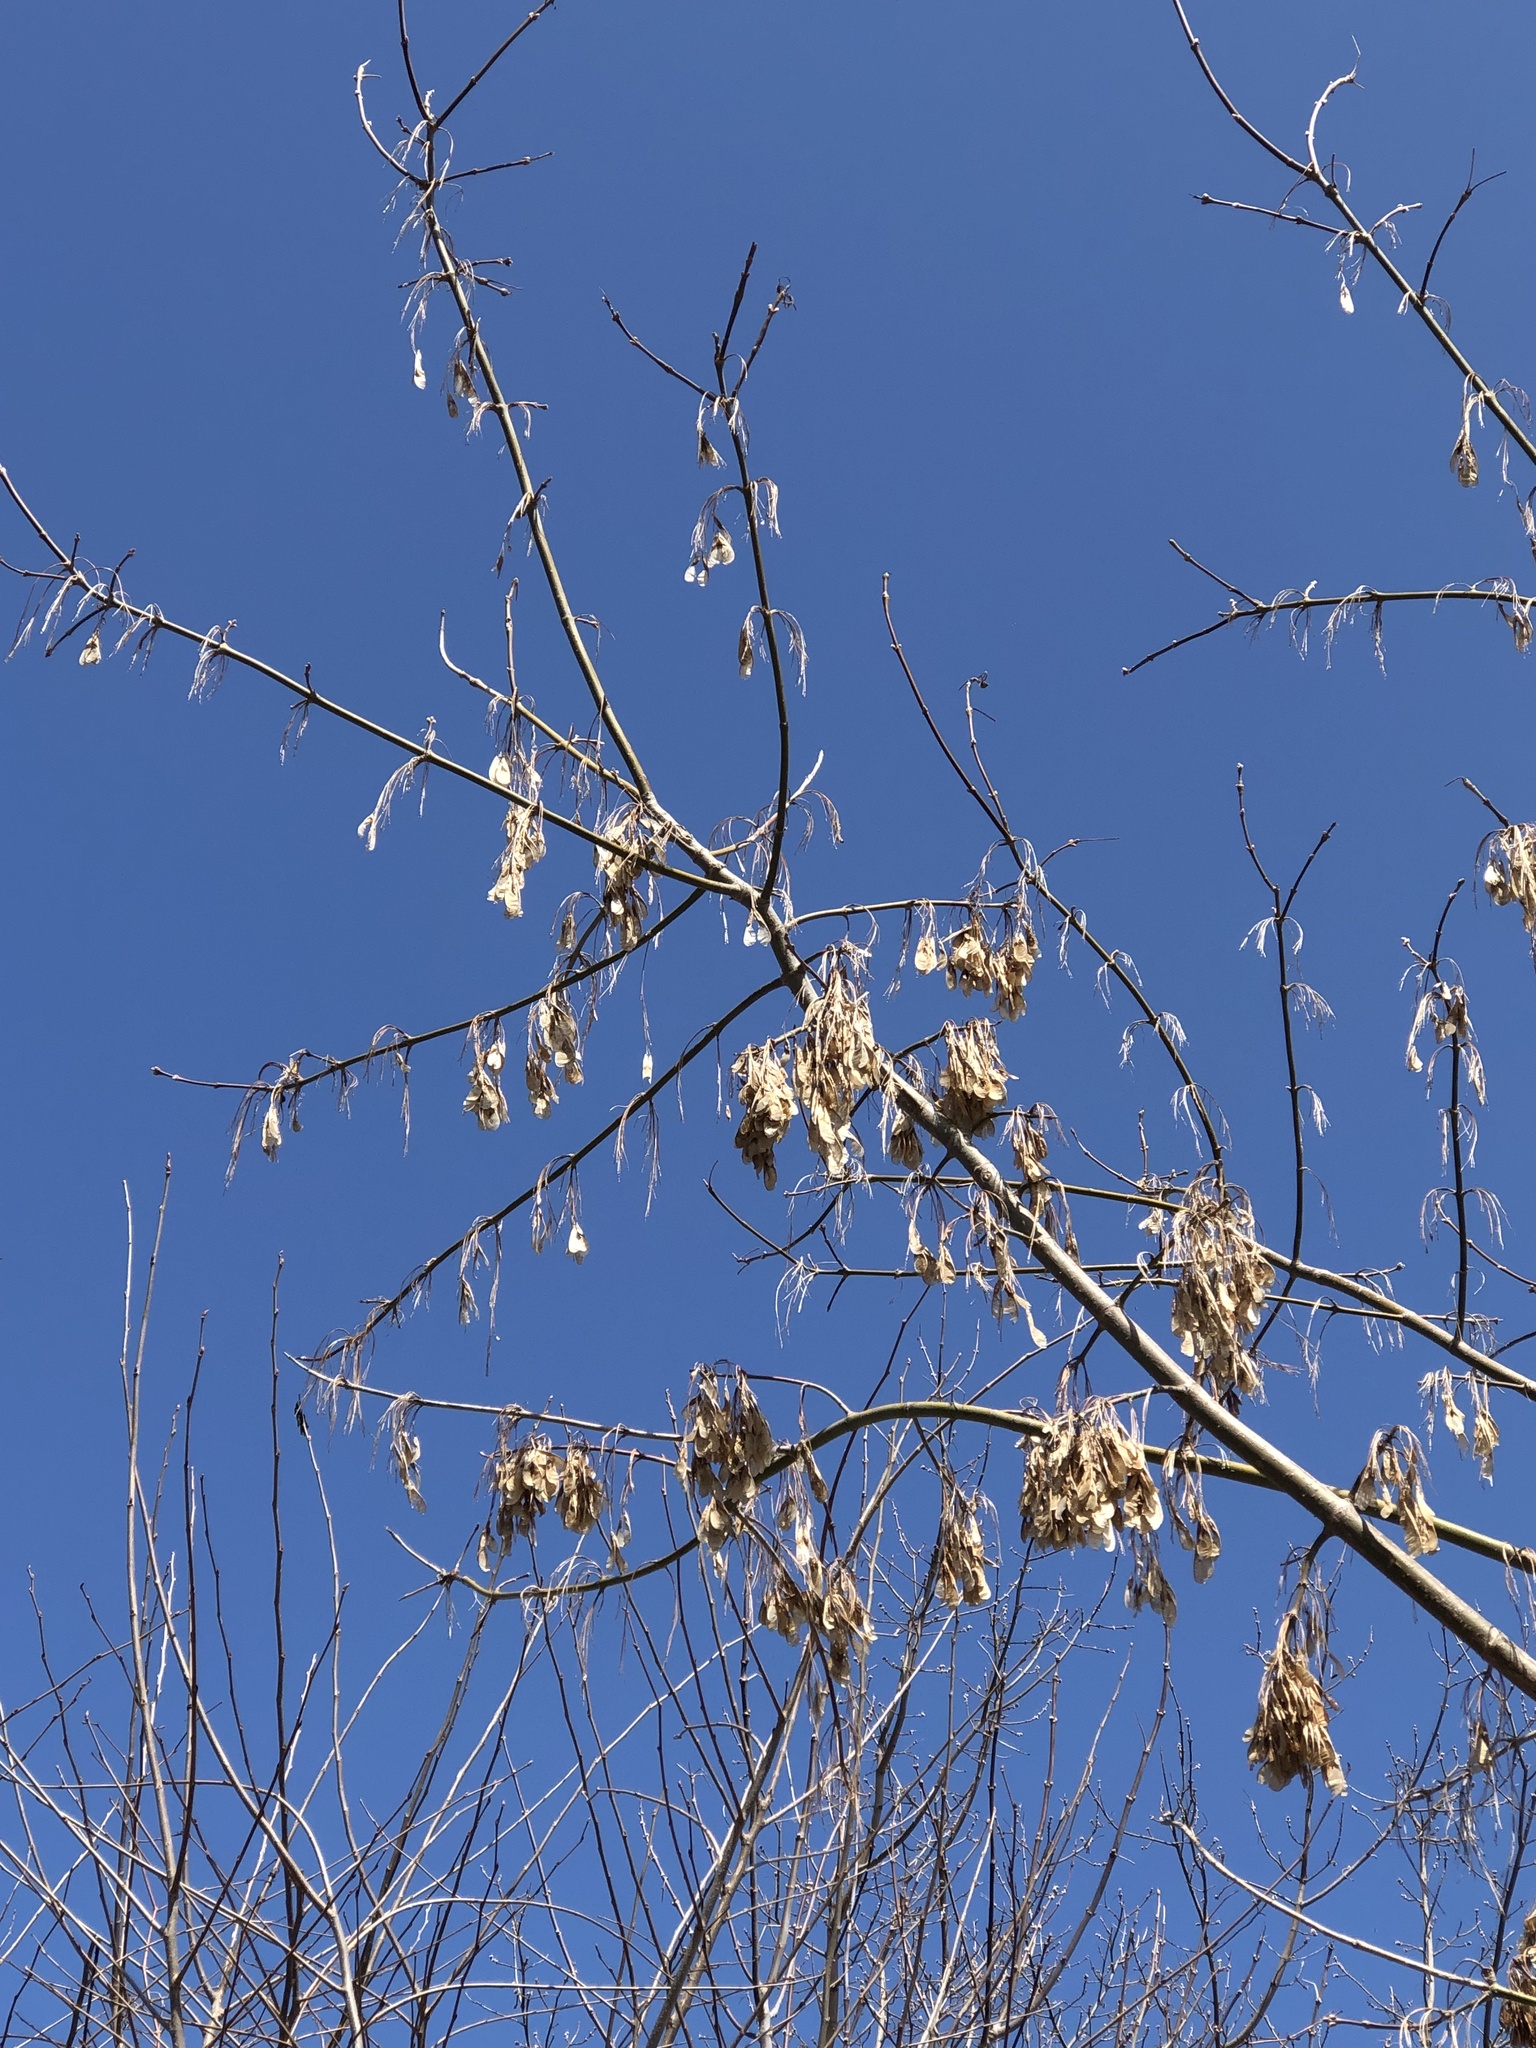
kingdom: Plantae
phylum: Tracheophyta
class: Magnoliopsida
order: Sapindales
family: Sapindaceae
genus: Acer
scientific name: Acer negundo
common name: Ashleaf maple
